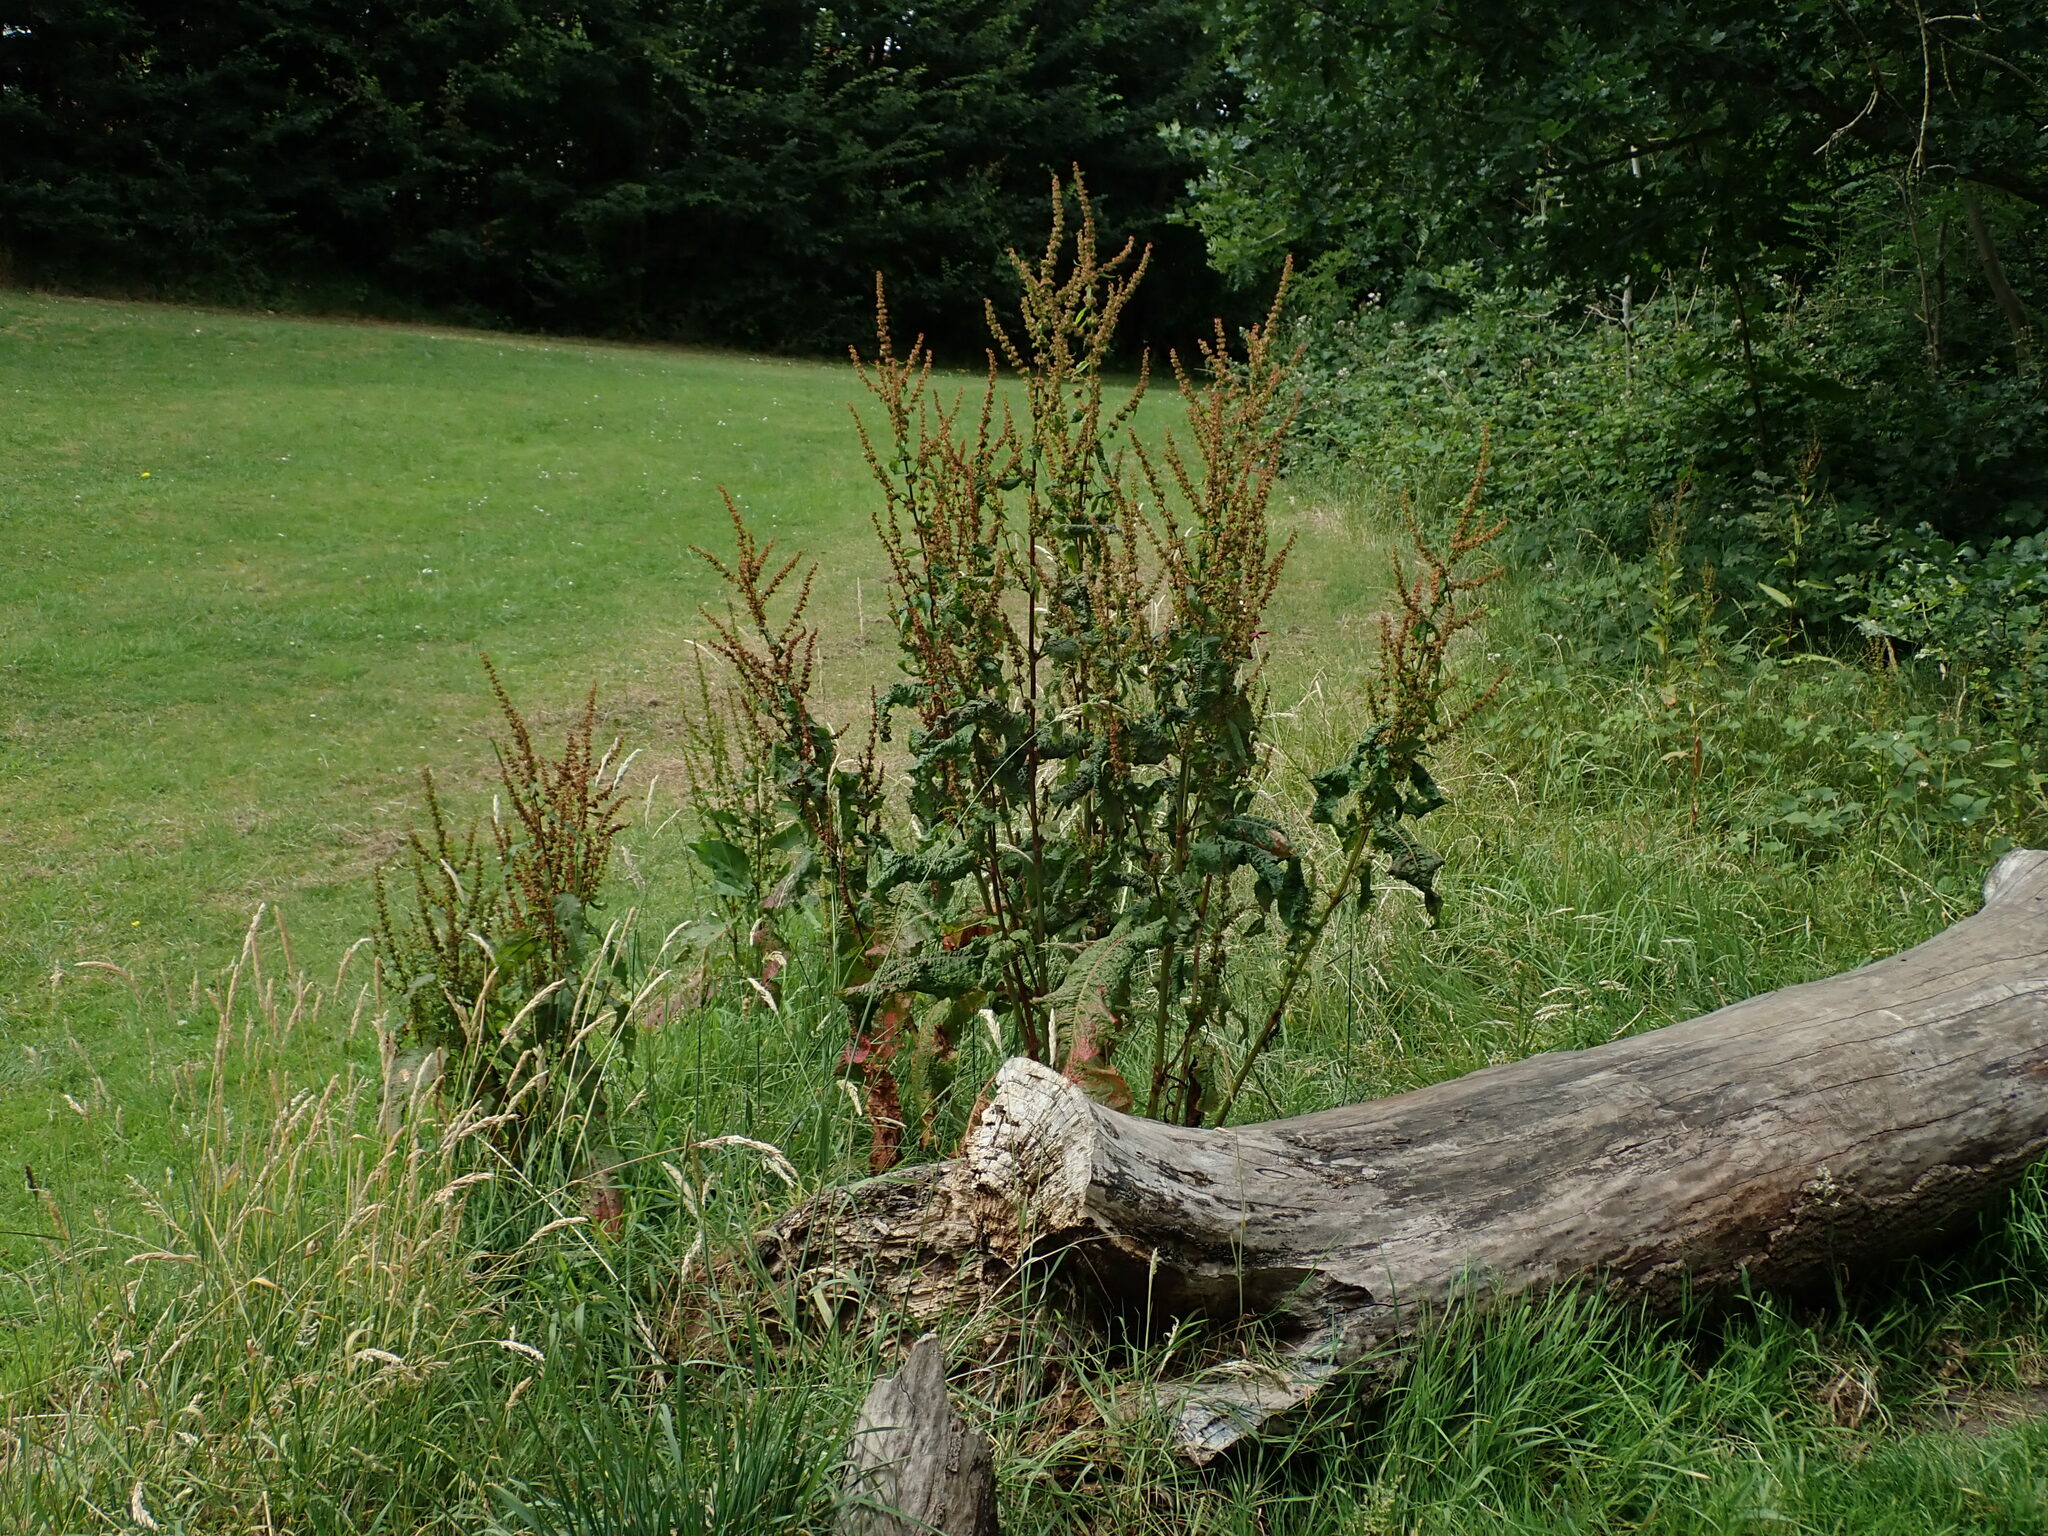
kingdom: Plantae
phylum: Tracheophyta
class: Magnoliopsida
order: Caryophyllales
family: Polygonaceae
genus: Rumex
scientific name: Rumex obtusifolius
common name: Bitter dock
